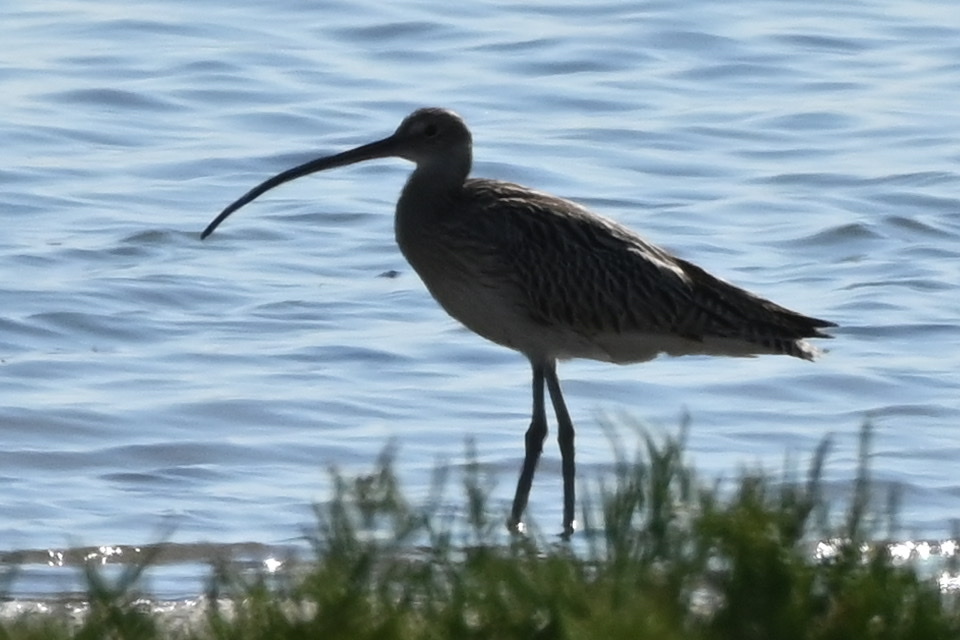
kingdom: Animalia
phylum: Chordata
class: Aves
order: Charadriiformes
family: Scolopacidae
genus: Numenius
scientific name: Numenius arquata
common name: Eurasian curlew
